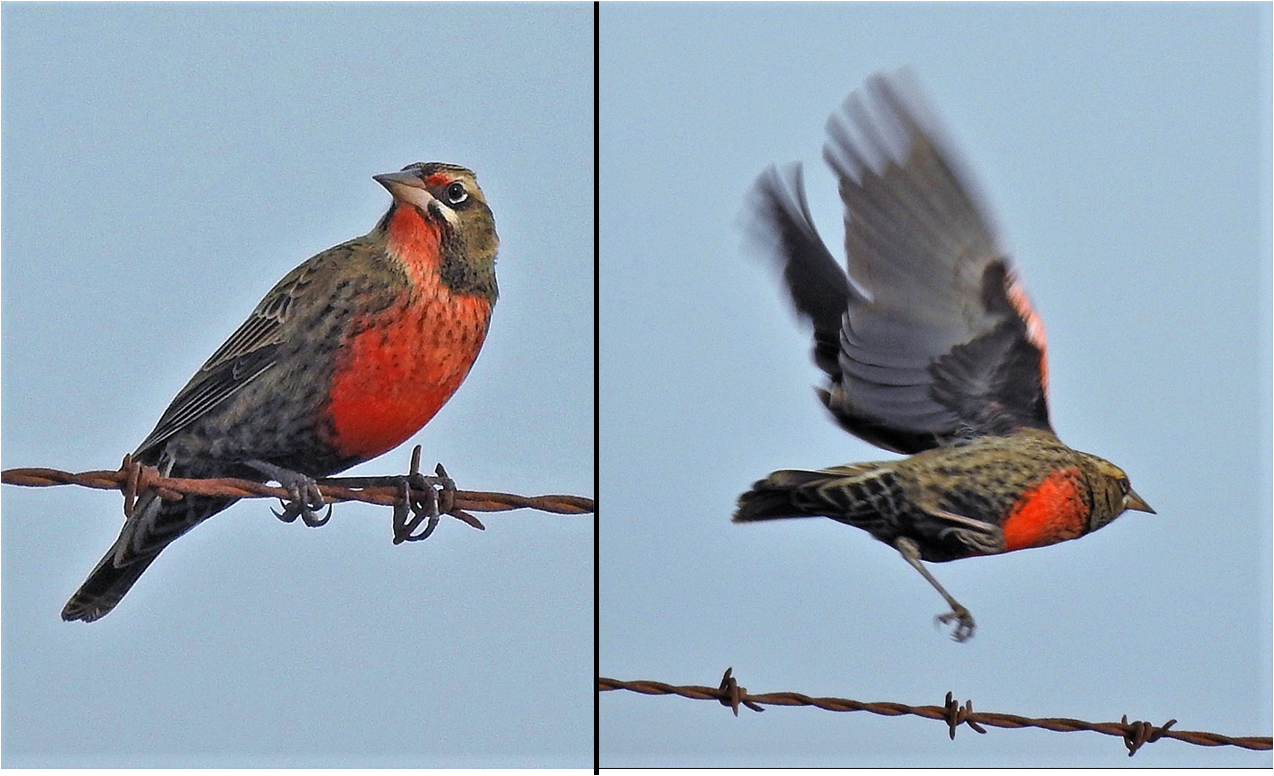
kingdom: Animalia
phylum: Chordata
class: Aves
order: Passeriformes
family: Icteridae
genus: Sturnella
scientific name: Sturnella defilippii
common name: Pampas meadowlark
